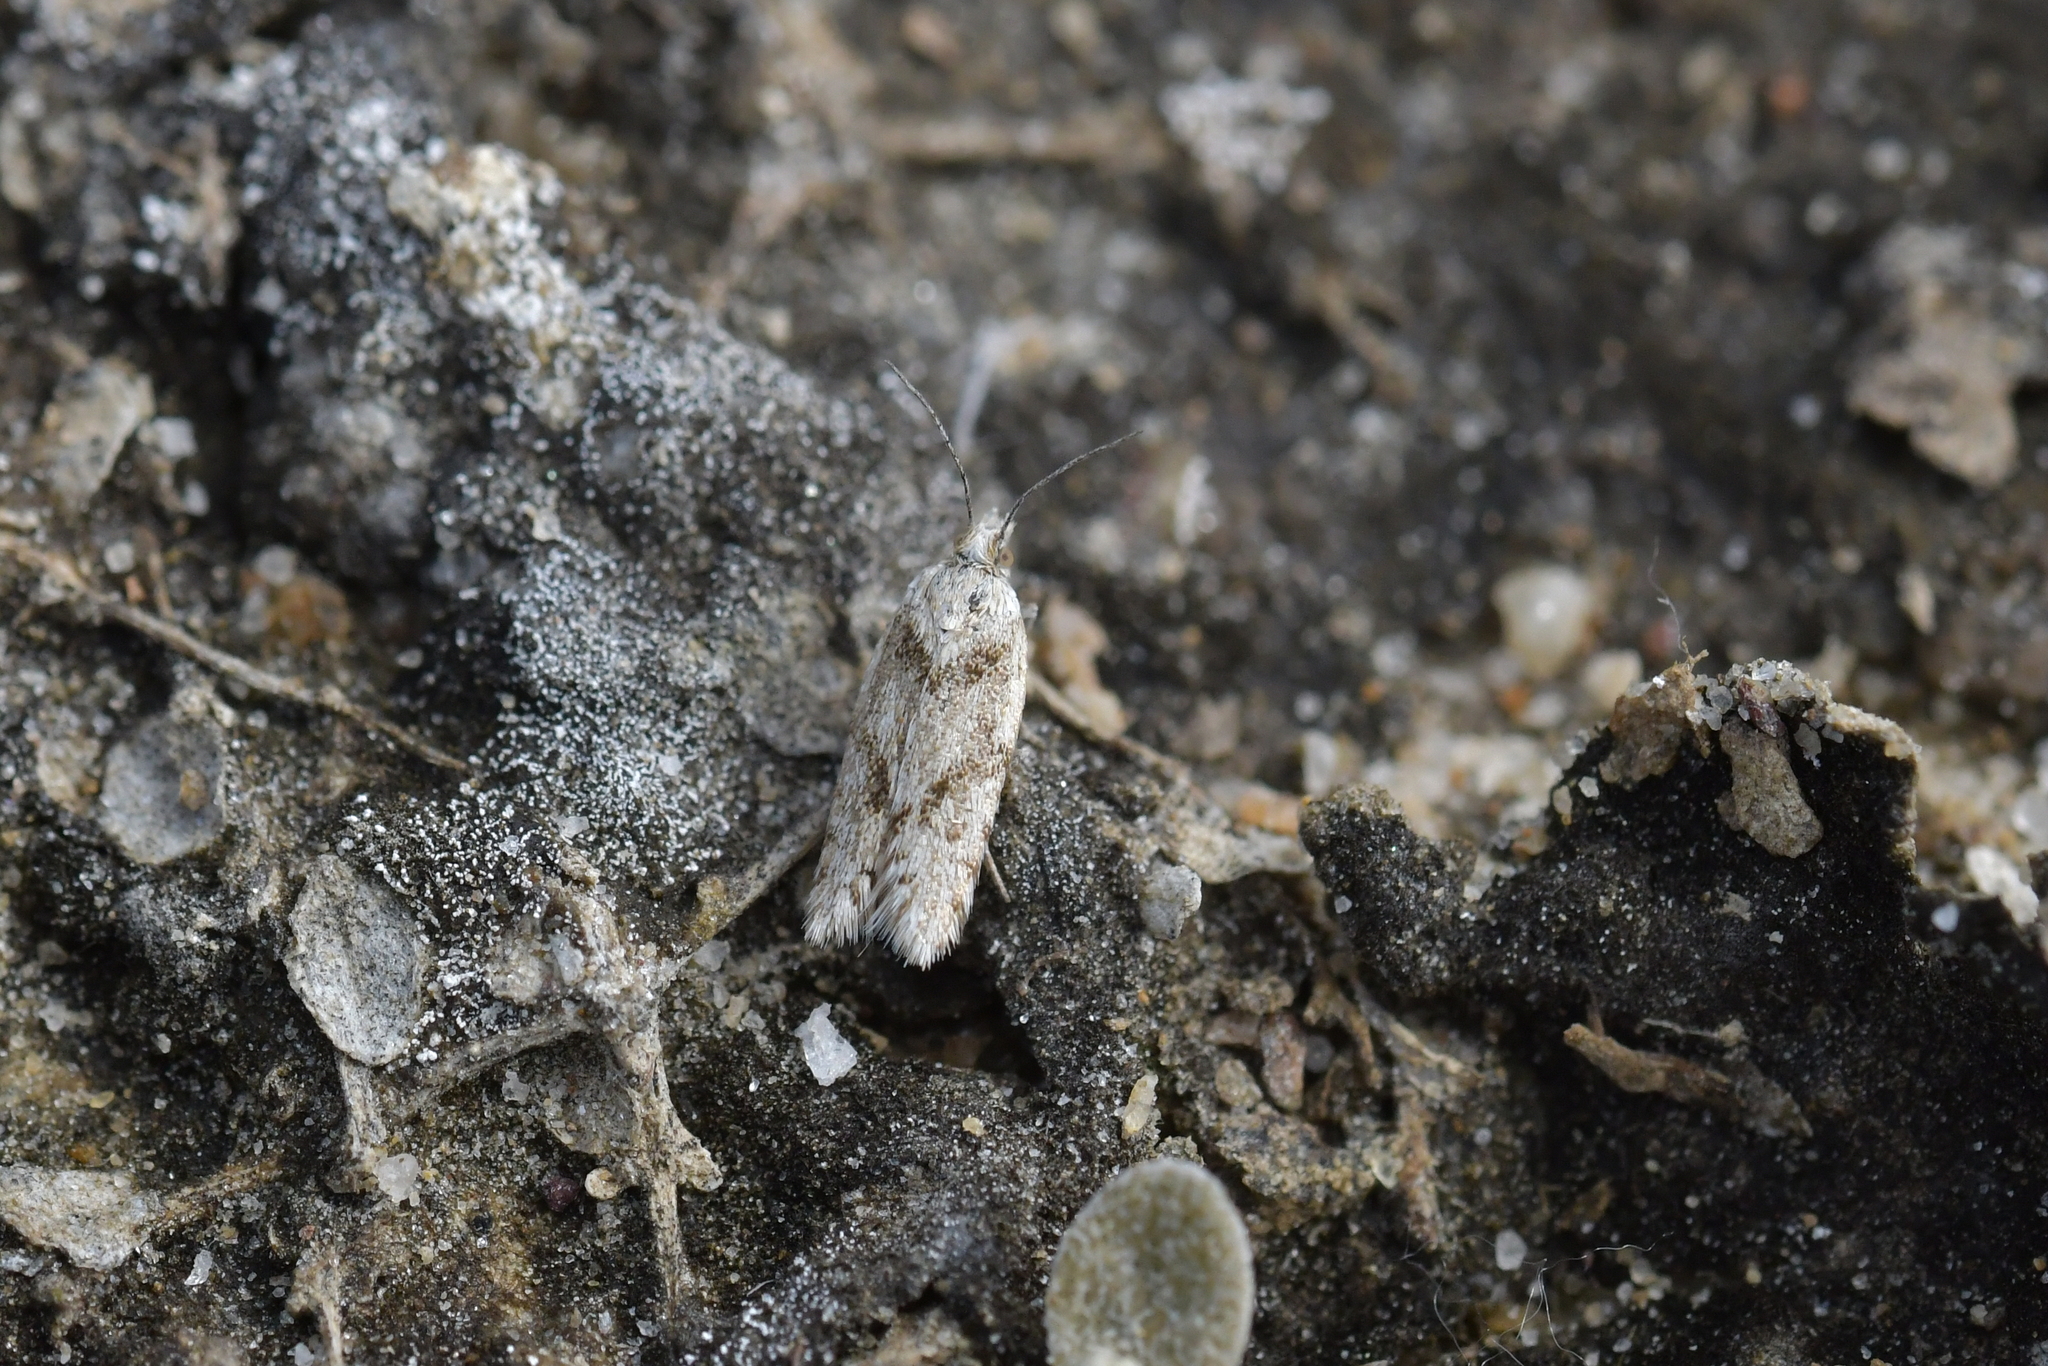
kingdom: Animalia
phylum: Arthropoda
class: Insecta
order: Lepidoptera
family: Tortricidae
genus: Eurythecta
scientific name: Eurythecta zelaea
